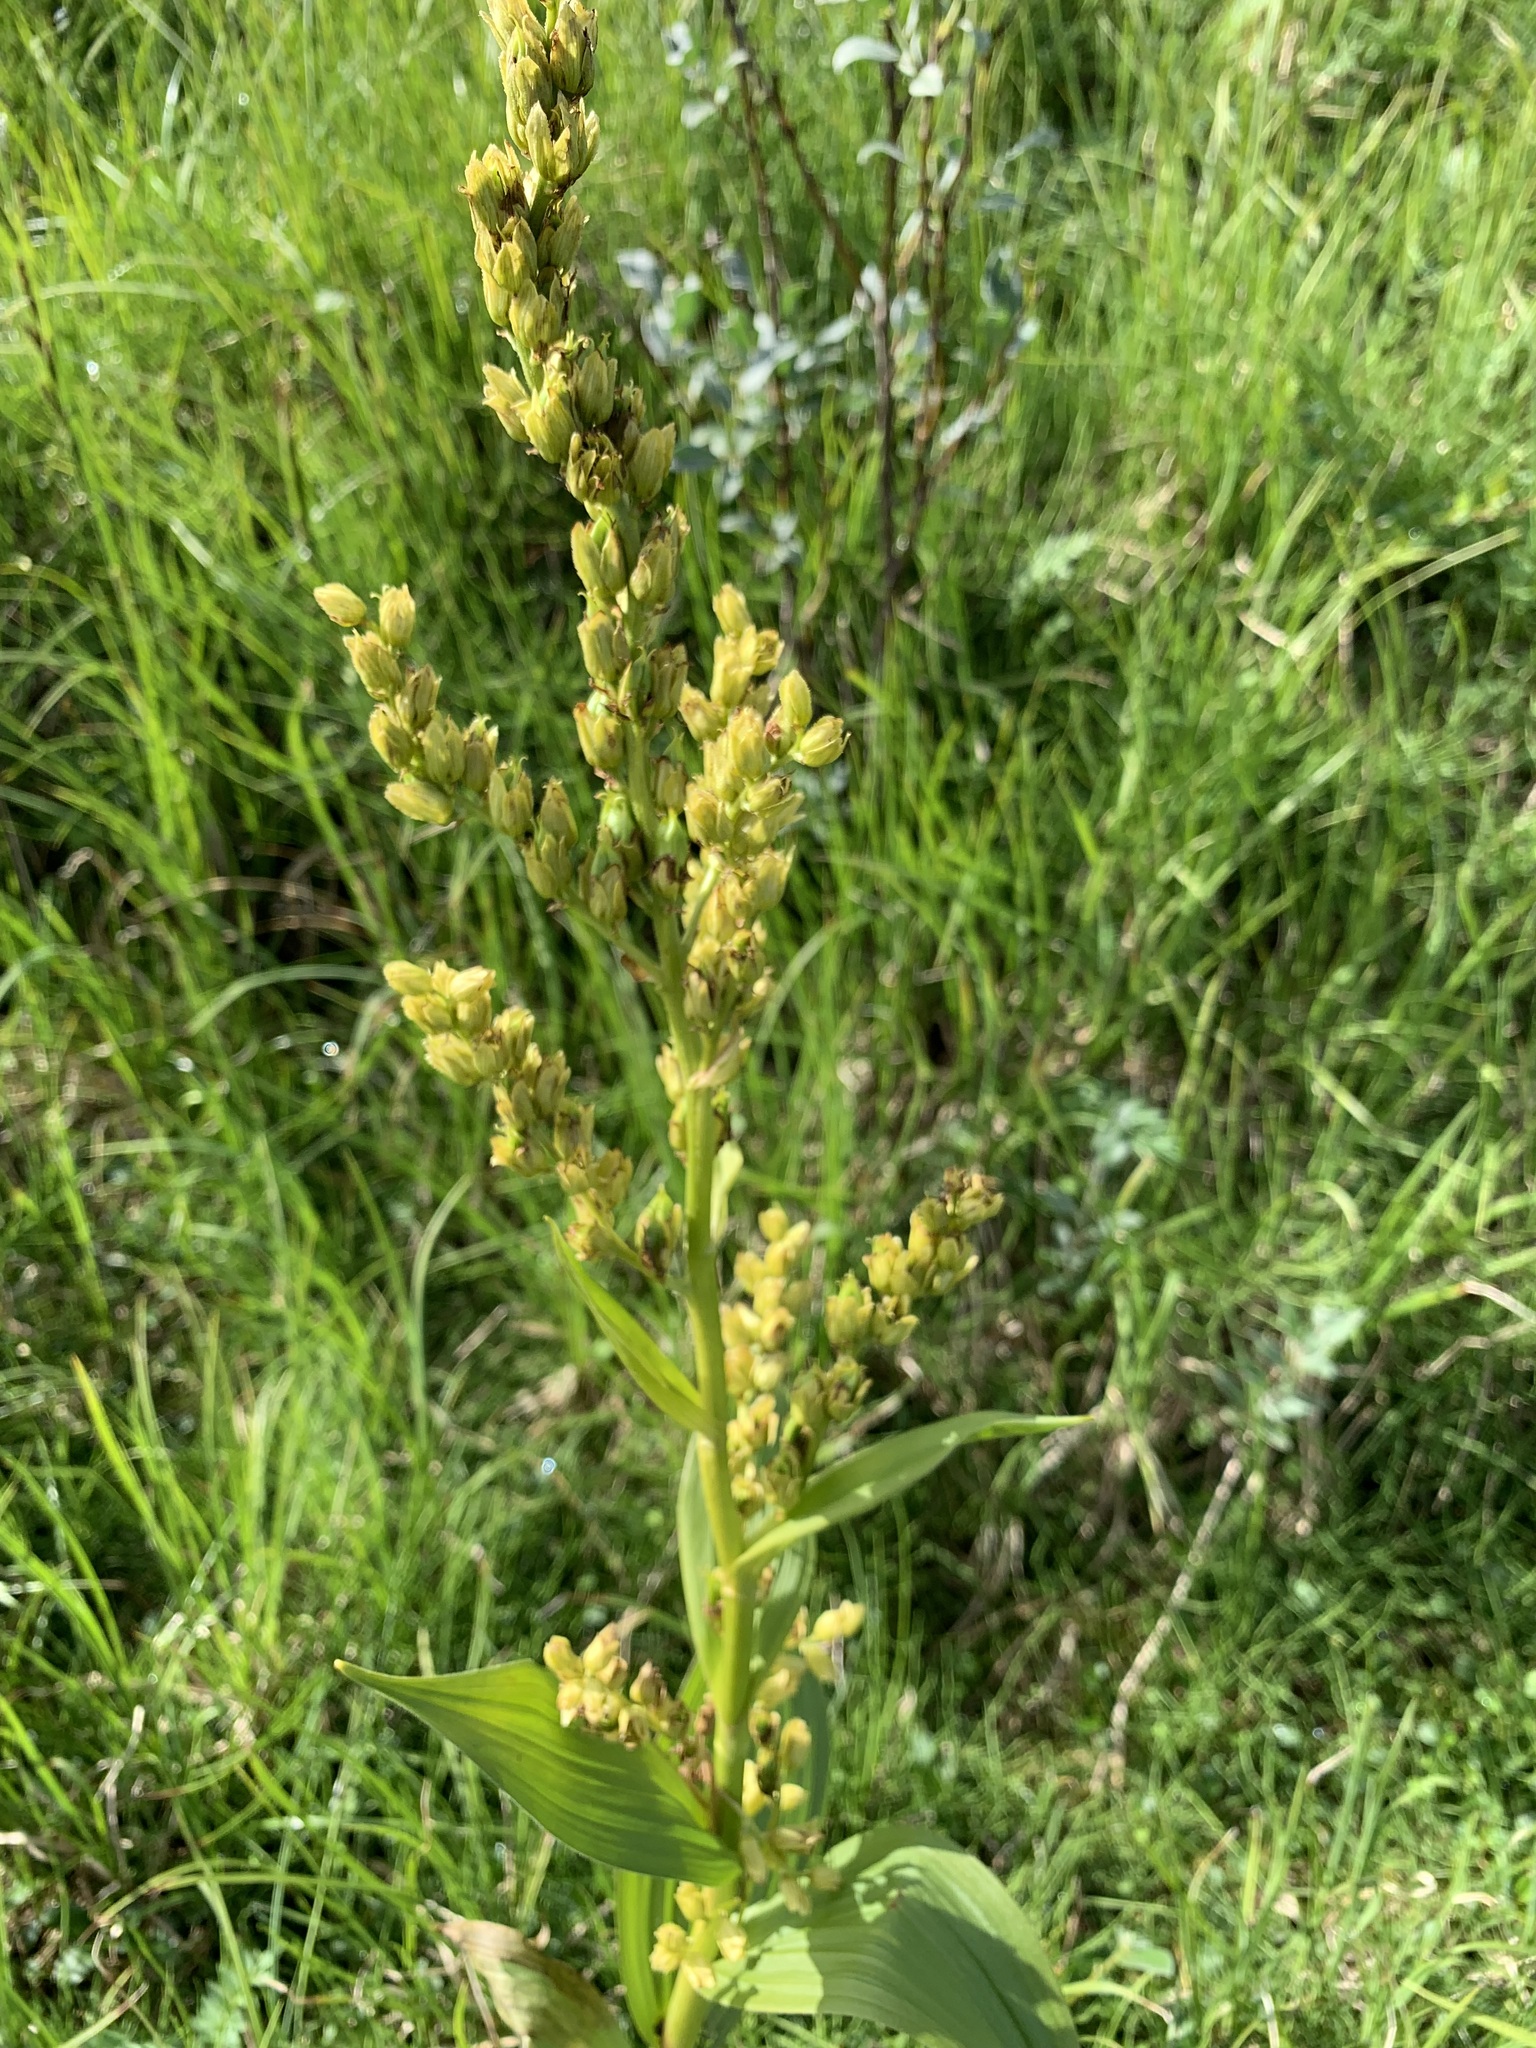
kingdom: Plantae
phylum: Tracheophyta
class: Liliopsida
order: Liliales
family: Melanthiaceae
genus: Veratrum
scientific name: Veratrum lobelianum
